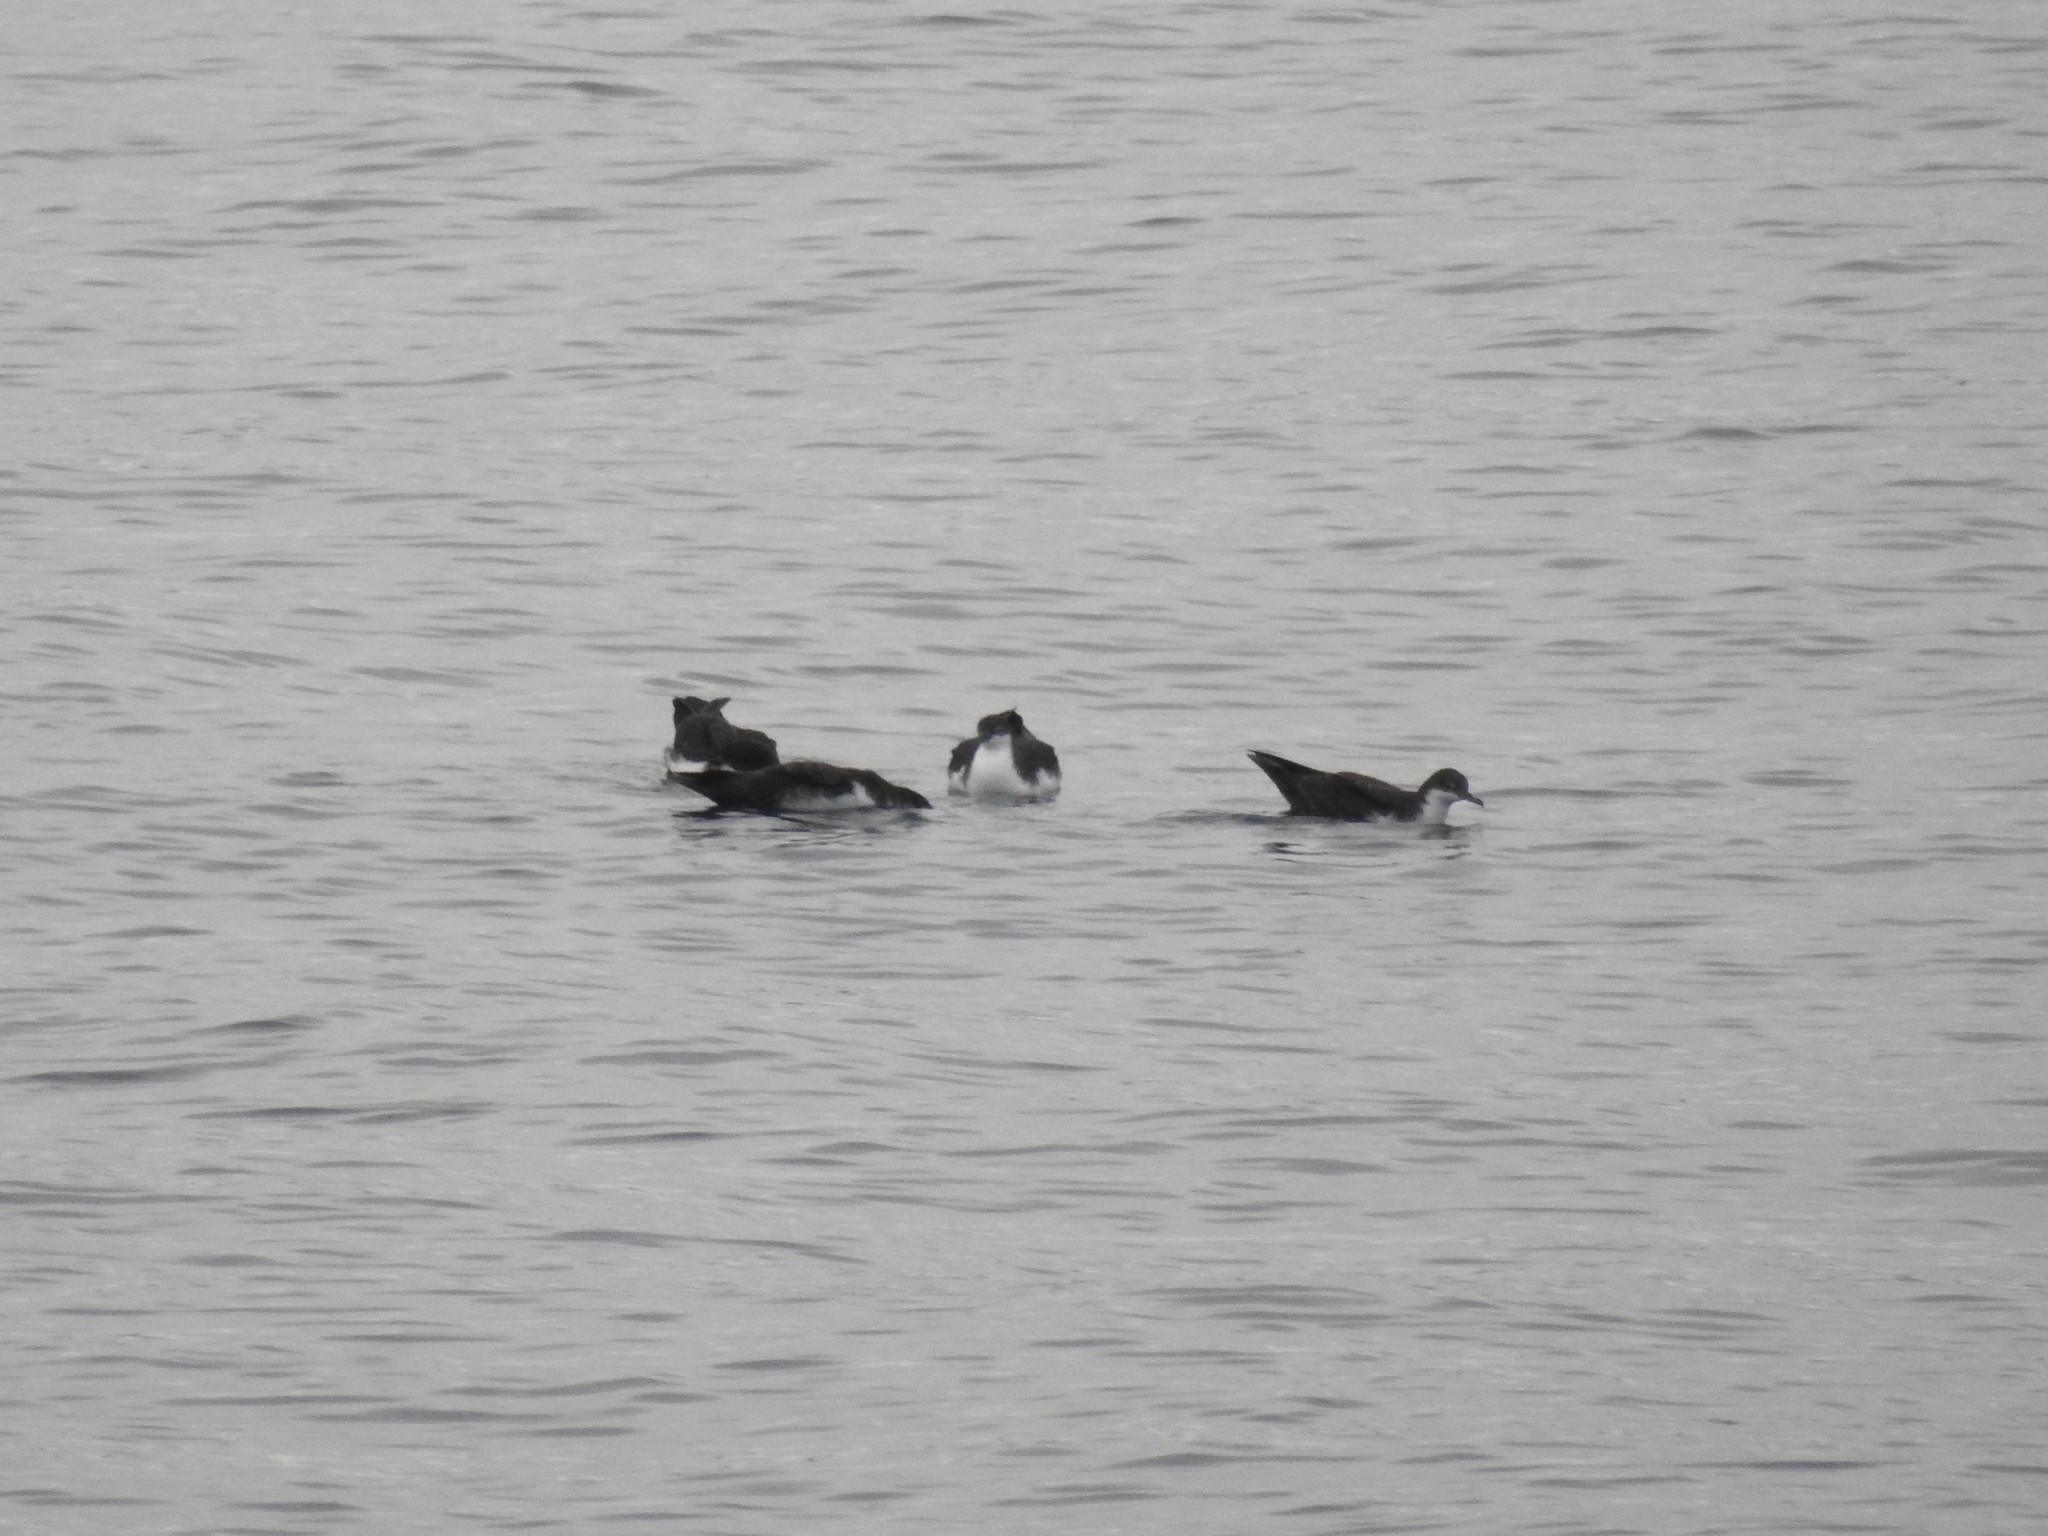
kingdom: Animalia
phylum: Chordata
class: Aves
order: Procellariiformes
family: Procellariidae
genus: Puffinus
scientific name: Puffinus subalaris
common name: Galapagos shearwater
